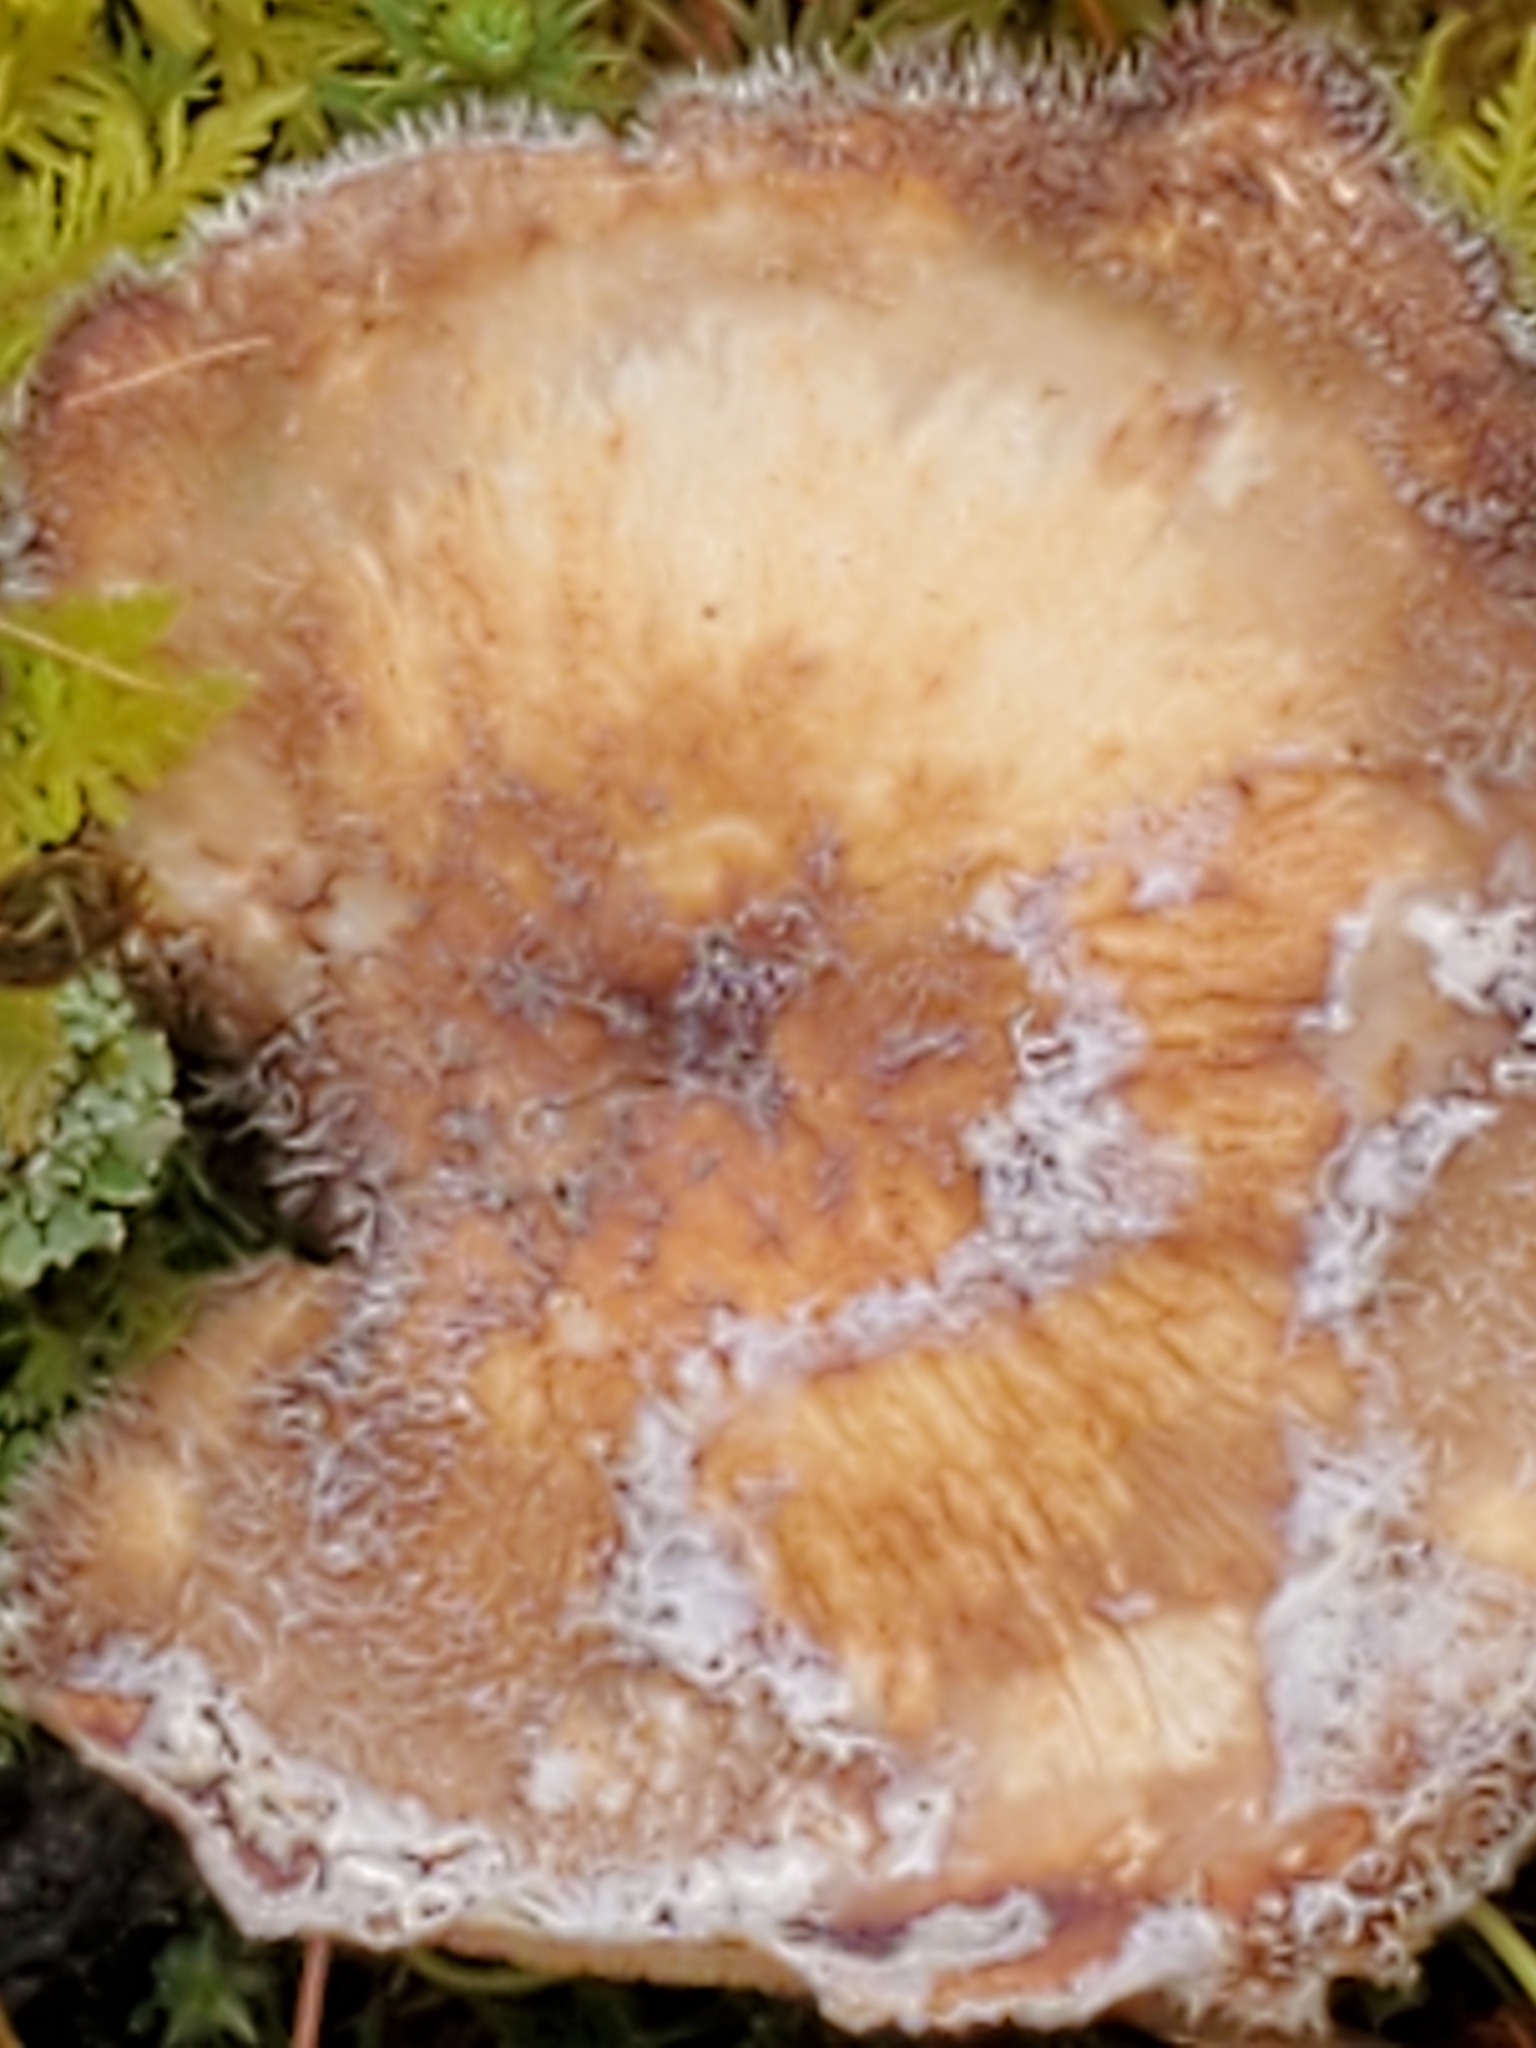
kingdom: Fungi
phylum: Basidiomycota
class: Agaricomycetes
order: Polyporales
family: Polyporaceae
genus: Lentinus
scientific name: Lentinus arcularius
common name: Spring polypore
